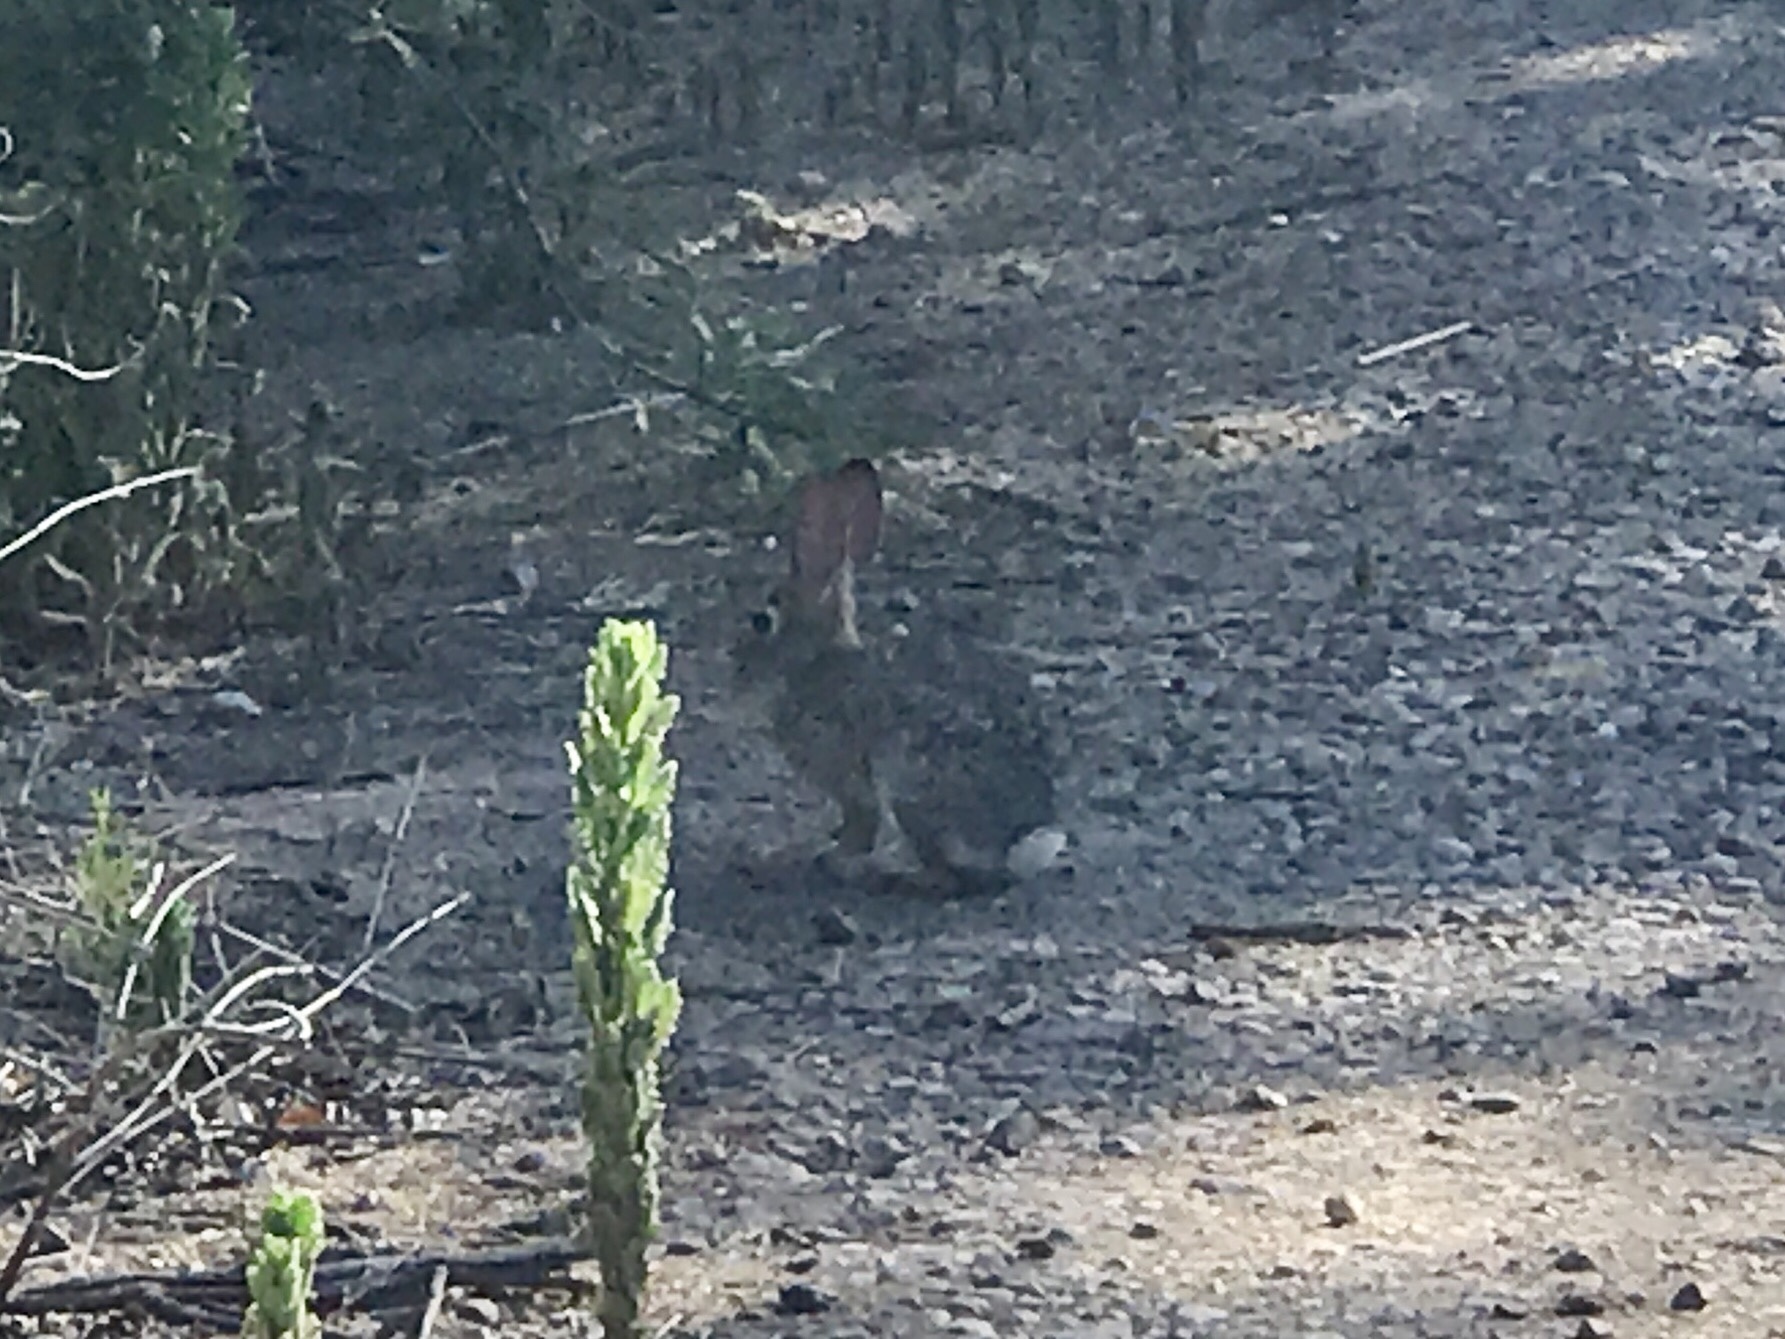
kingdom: Animalia
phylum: Chordata
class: Mammalia
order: Lagomorpha
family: Leporidae
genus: Sylvilagus
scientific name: Sylvilagus audubonii
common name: Desert cottontail
